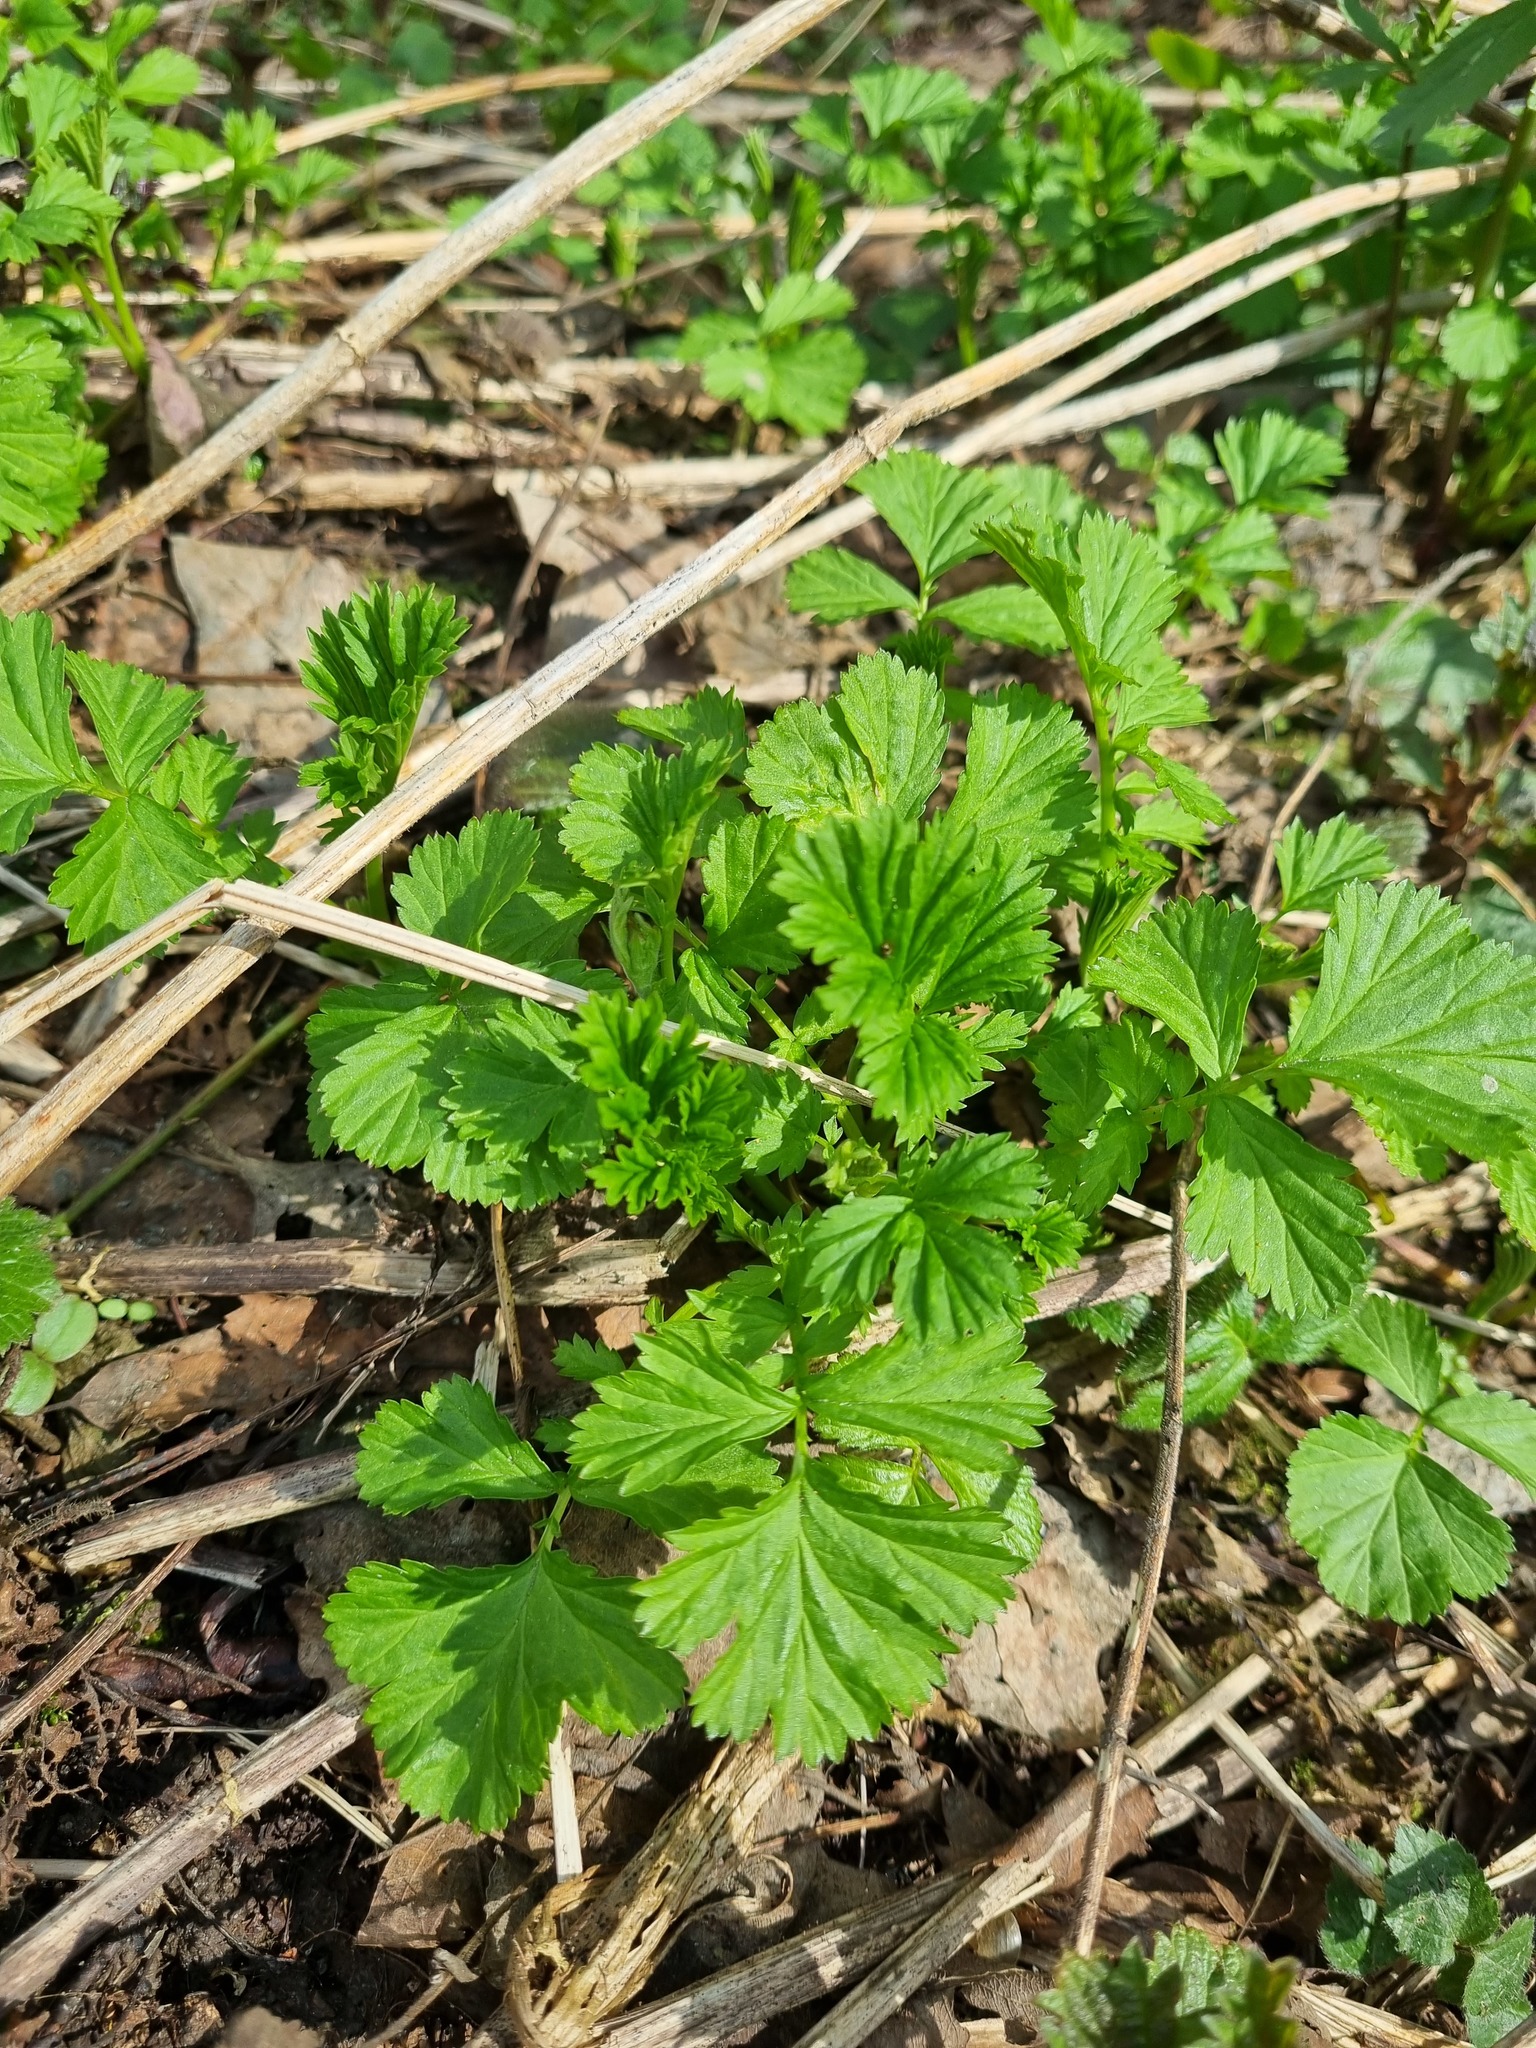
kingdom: Plantae
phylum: Tracheophyta
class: Magnoliopsida
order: Rosales
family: Rosaceae
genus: Geum
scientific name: Geum rivale
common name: Water avens
